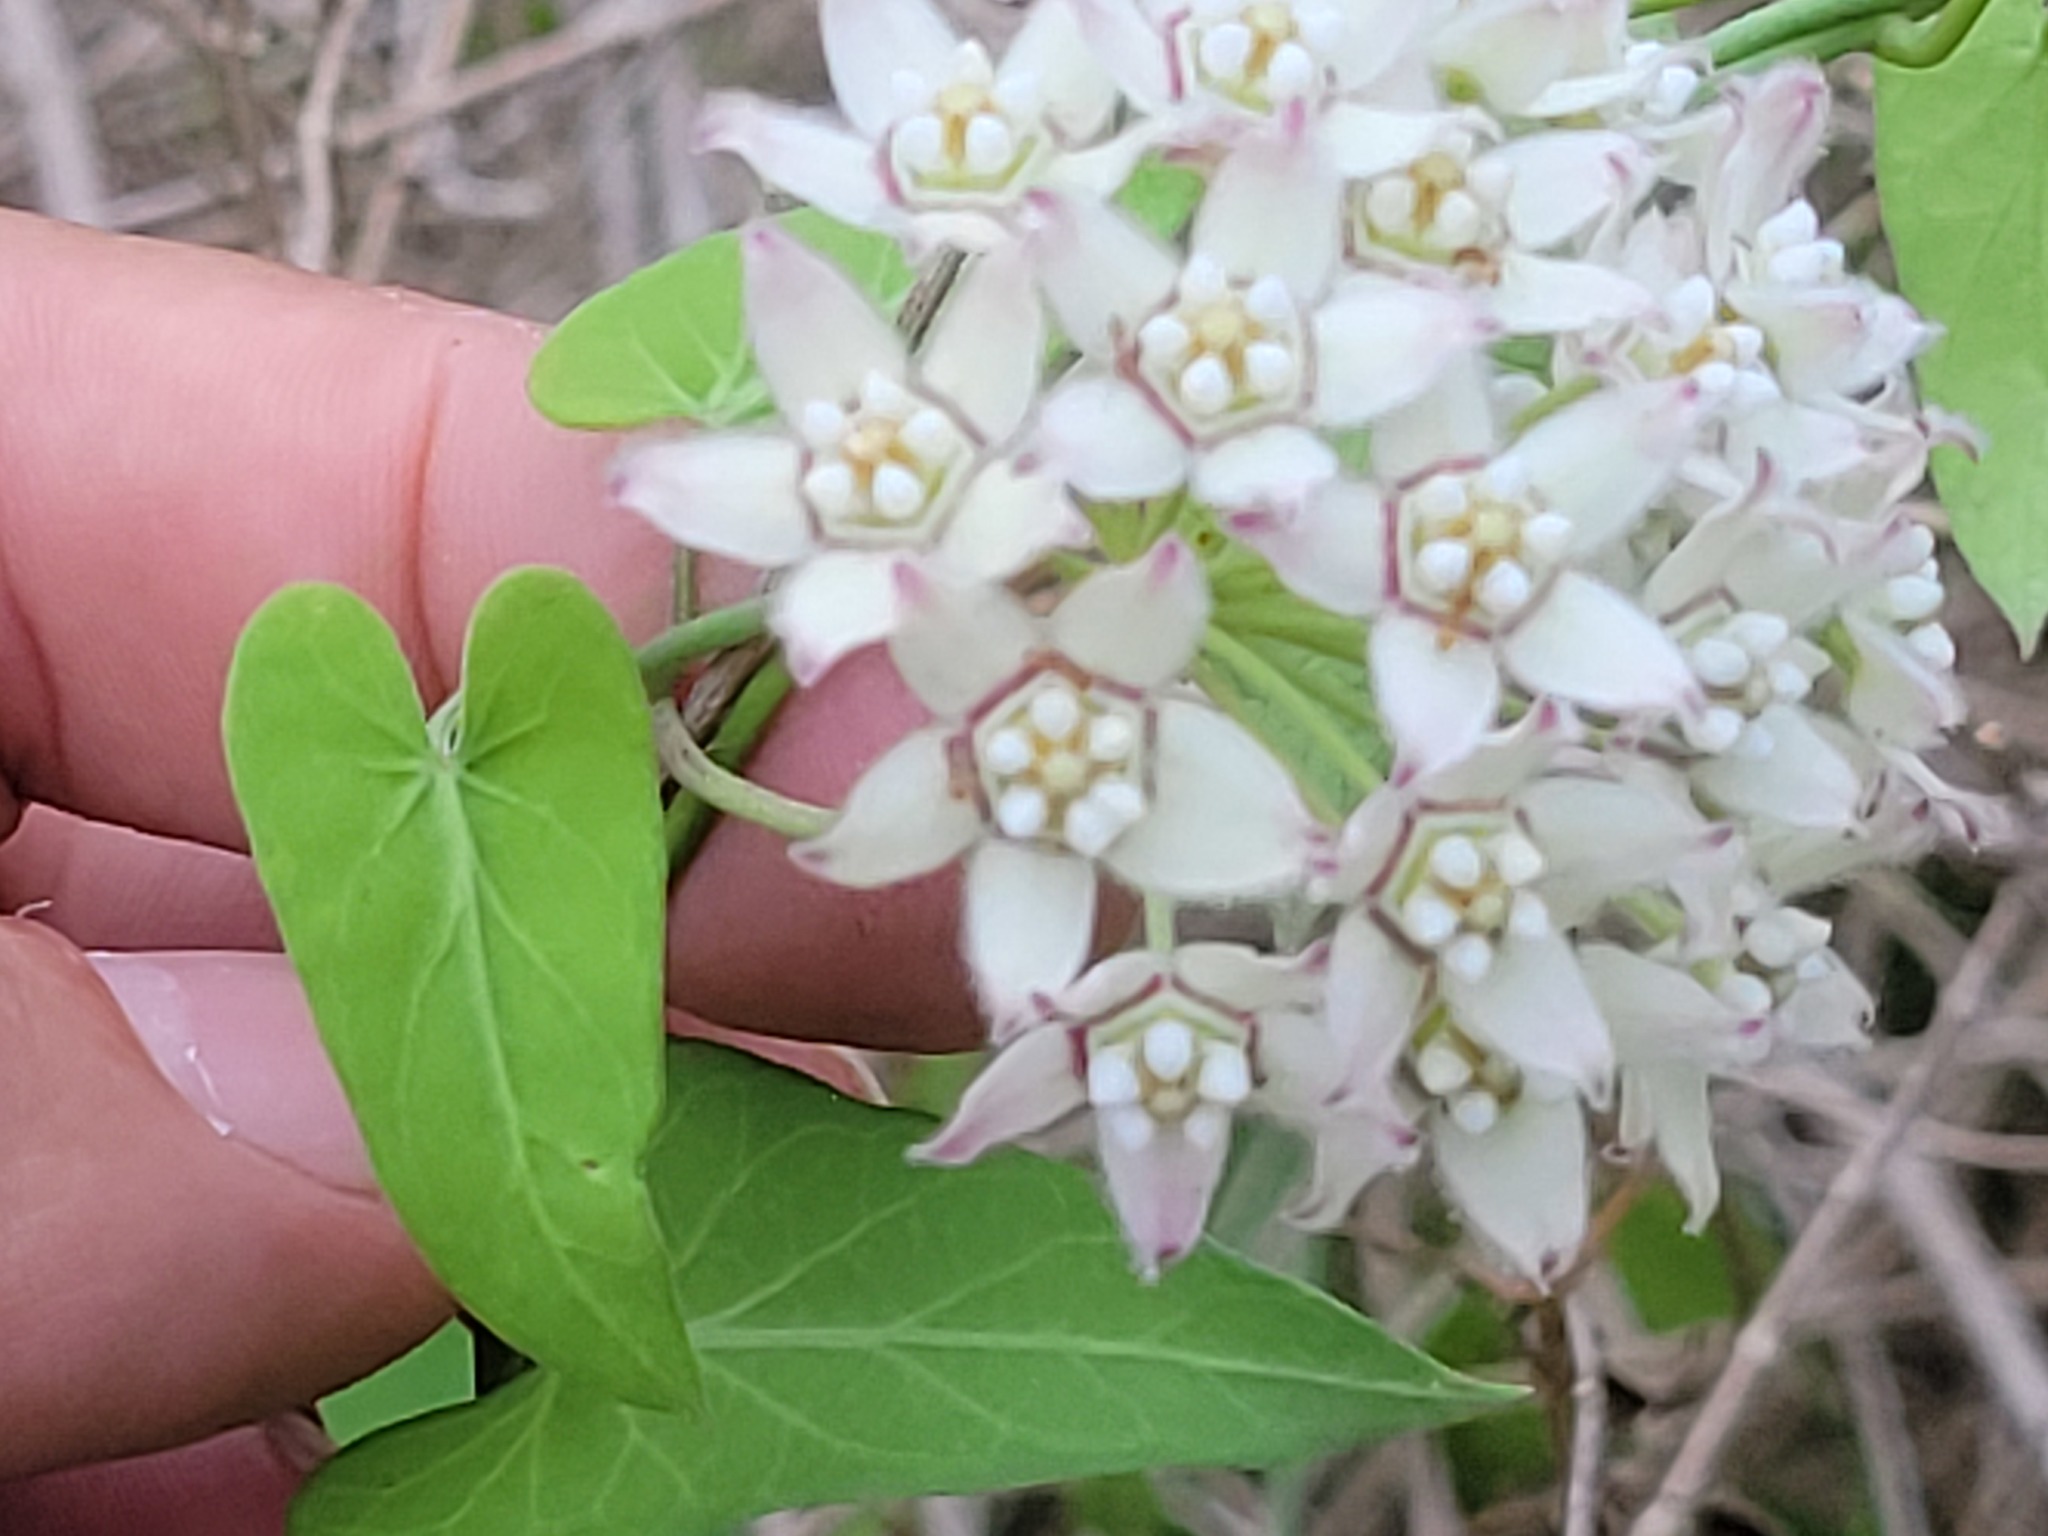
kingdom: Plantae
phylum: Tracheophyta
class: Magnoliopsida
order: Gentianales
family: Apocynaceae
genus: Funastrum
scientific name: Funastrum cynanchoides
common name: Climbing-milkweed
